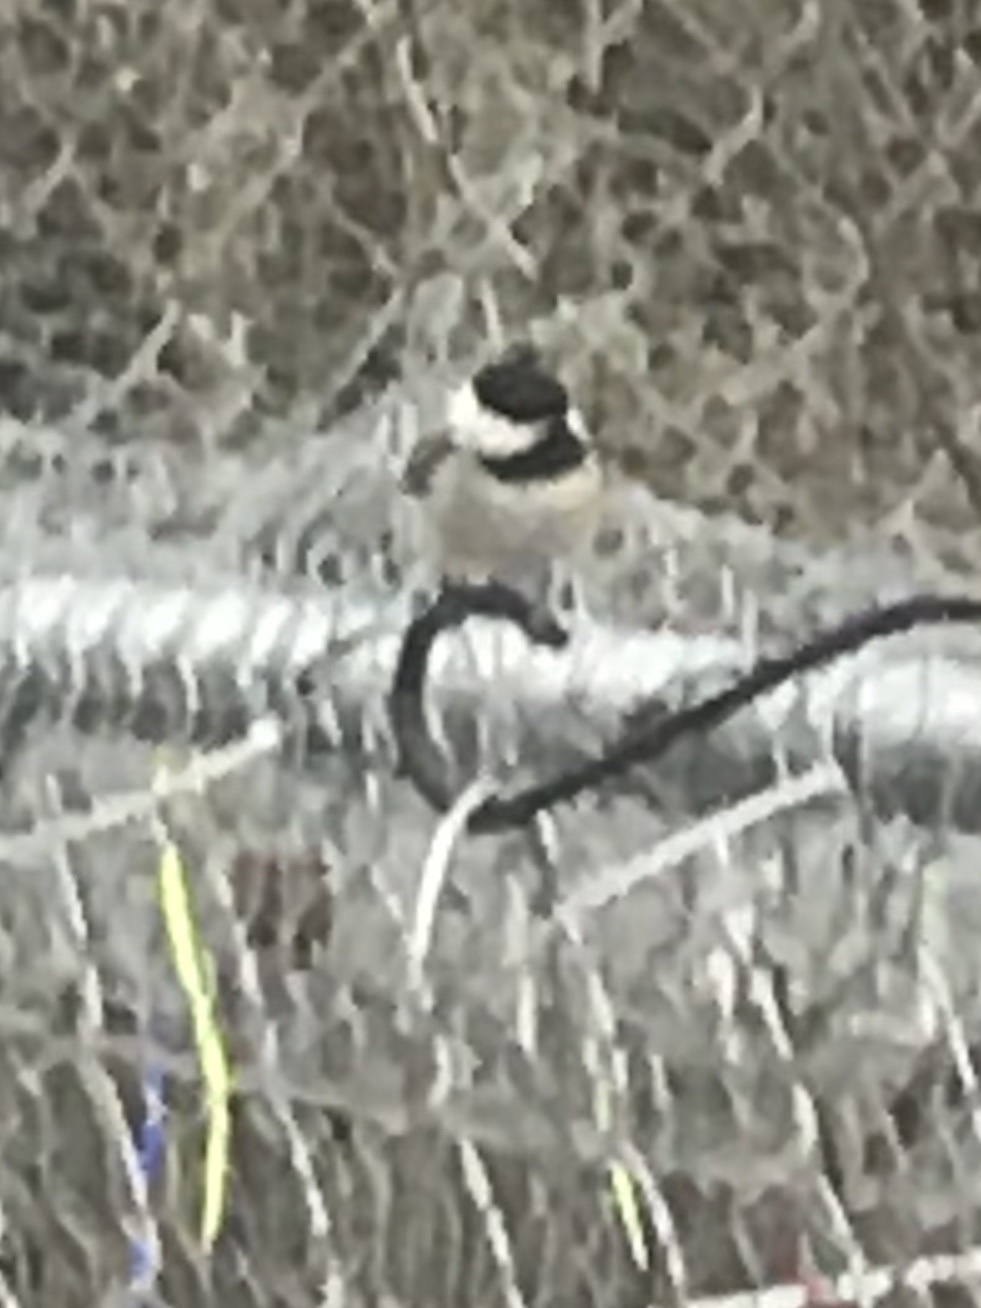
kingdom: Animalia
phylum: Chordata
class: Aves
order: Passeriformes
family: Paridae
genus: Poecile
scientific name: Poecile carolinensis
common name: Carolina chickadee
